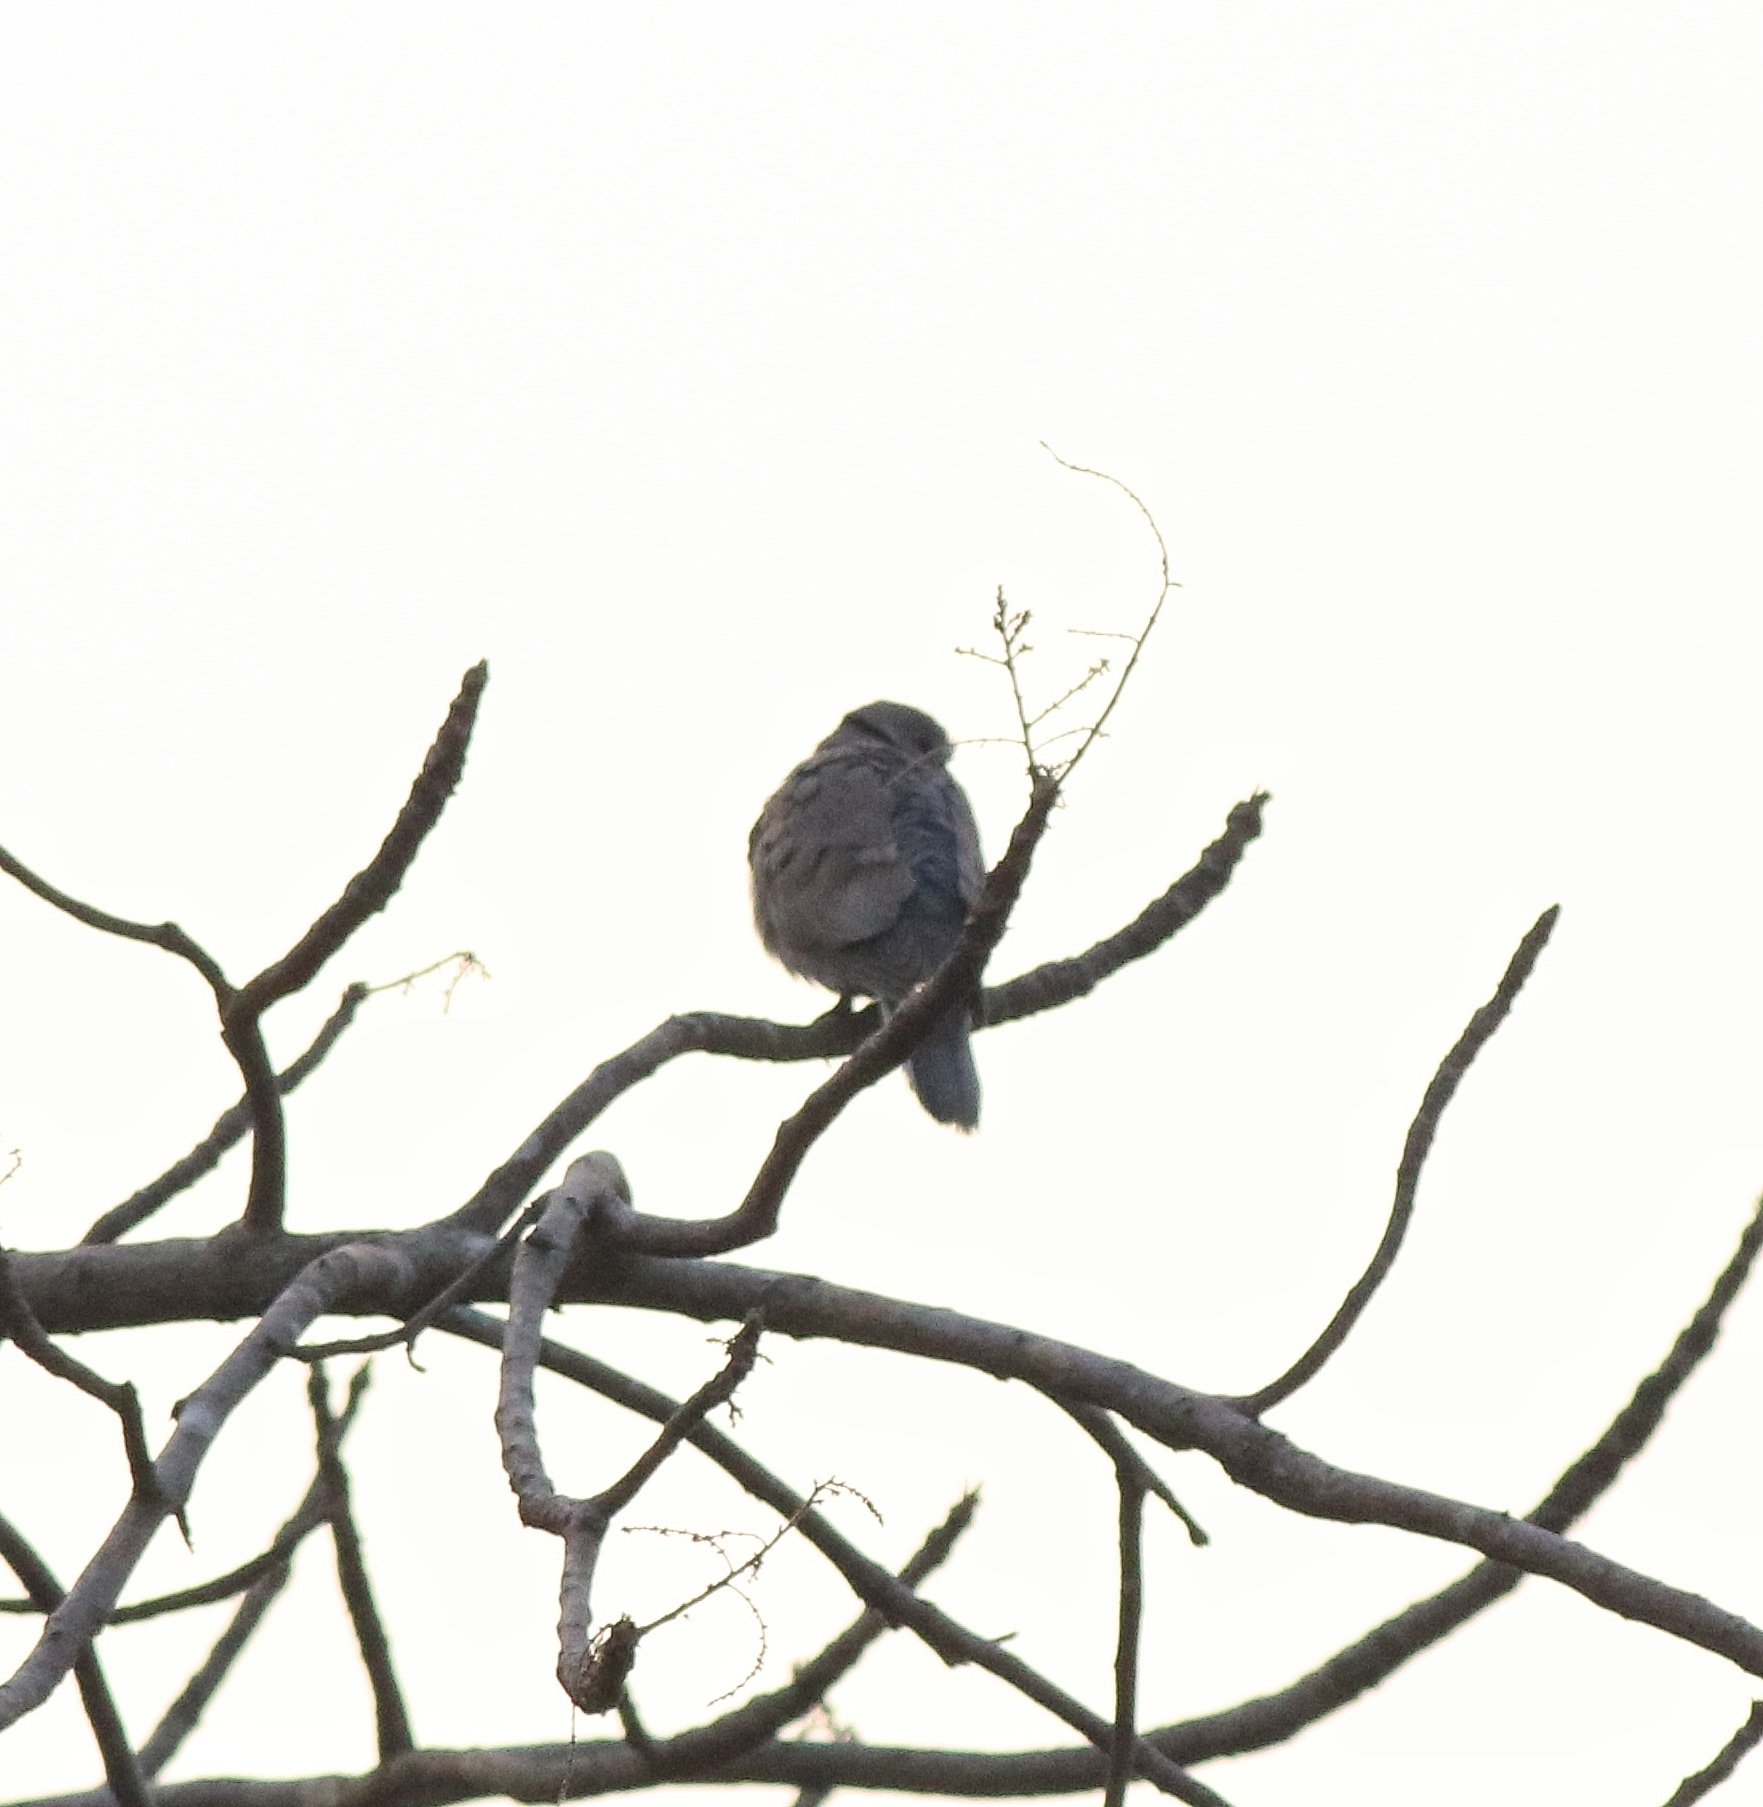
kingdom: Animalia
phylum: Chordata
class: Aves
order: Columbiformes
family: Columbidae
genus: Streptopelia
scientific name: Streptopelia decaocto
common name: Eurasian collared dove
